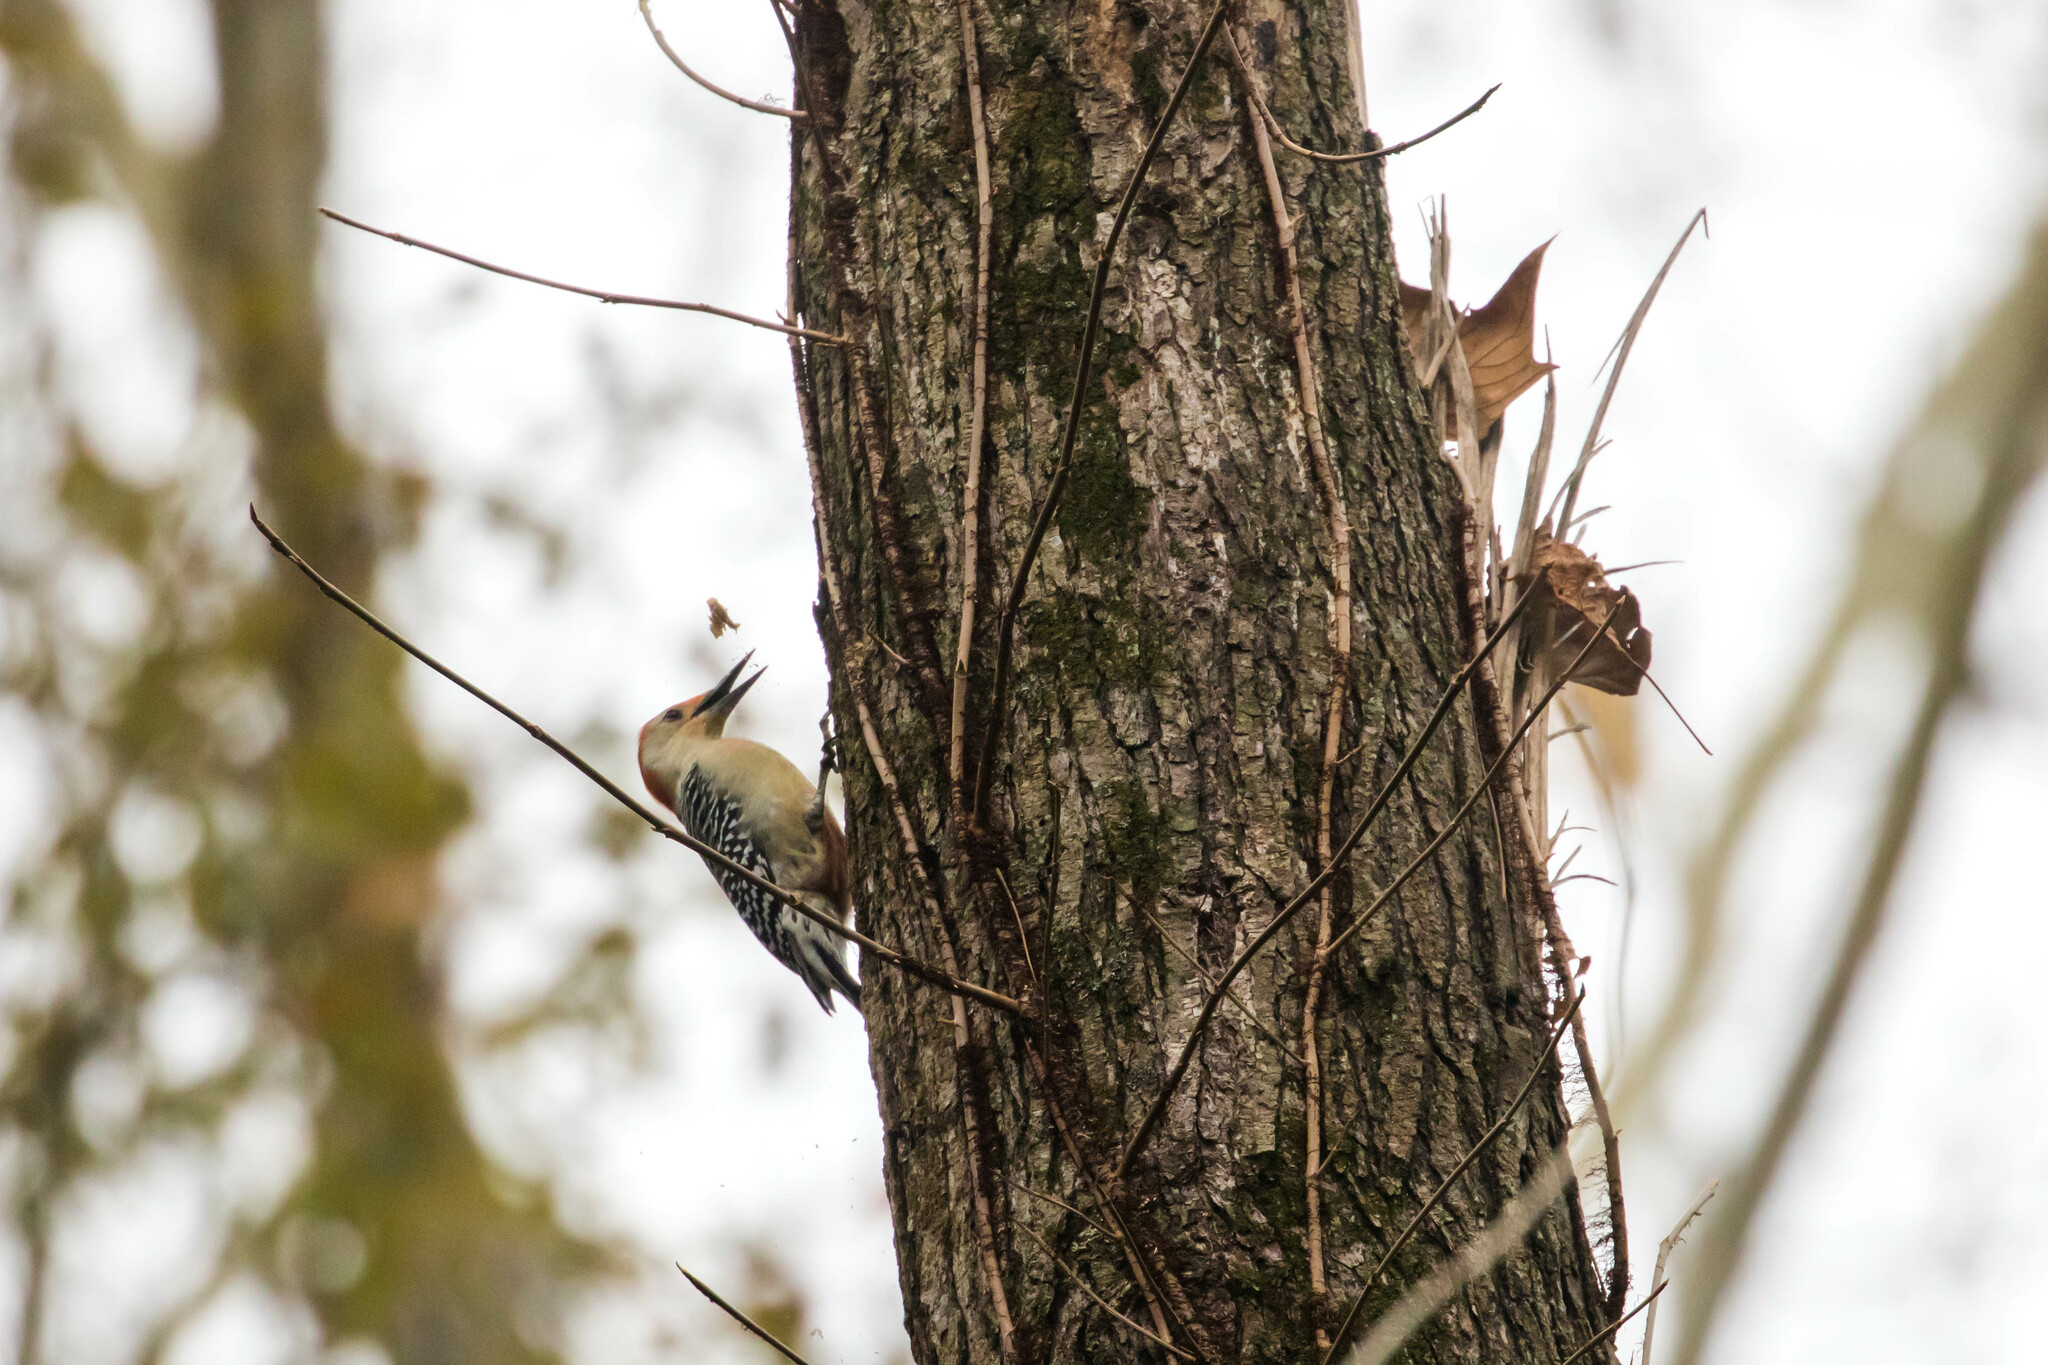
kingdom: Animalia
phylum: Chordata
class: Aves
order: Piciformes
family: Picidae
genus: Melanerpes
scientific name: Melanerpes carolinus
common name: Red-bellied woodpecker
